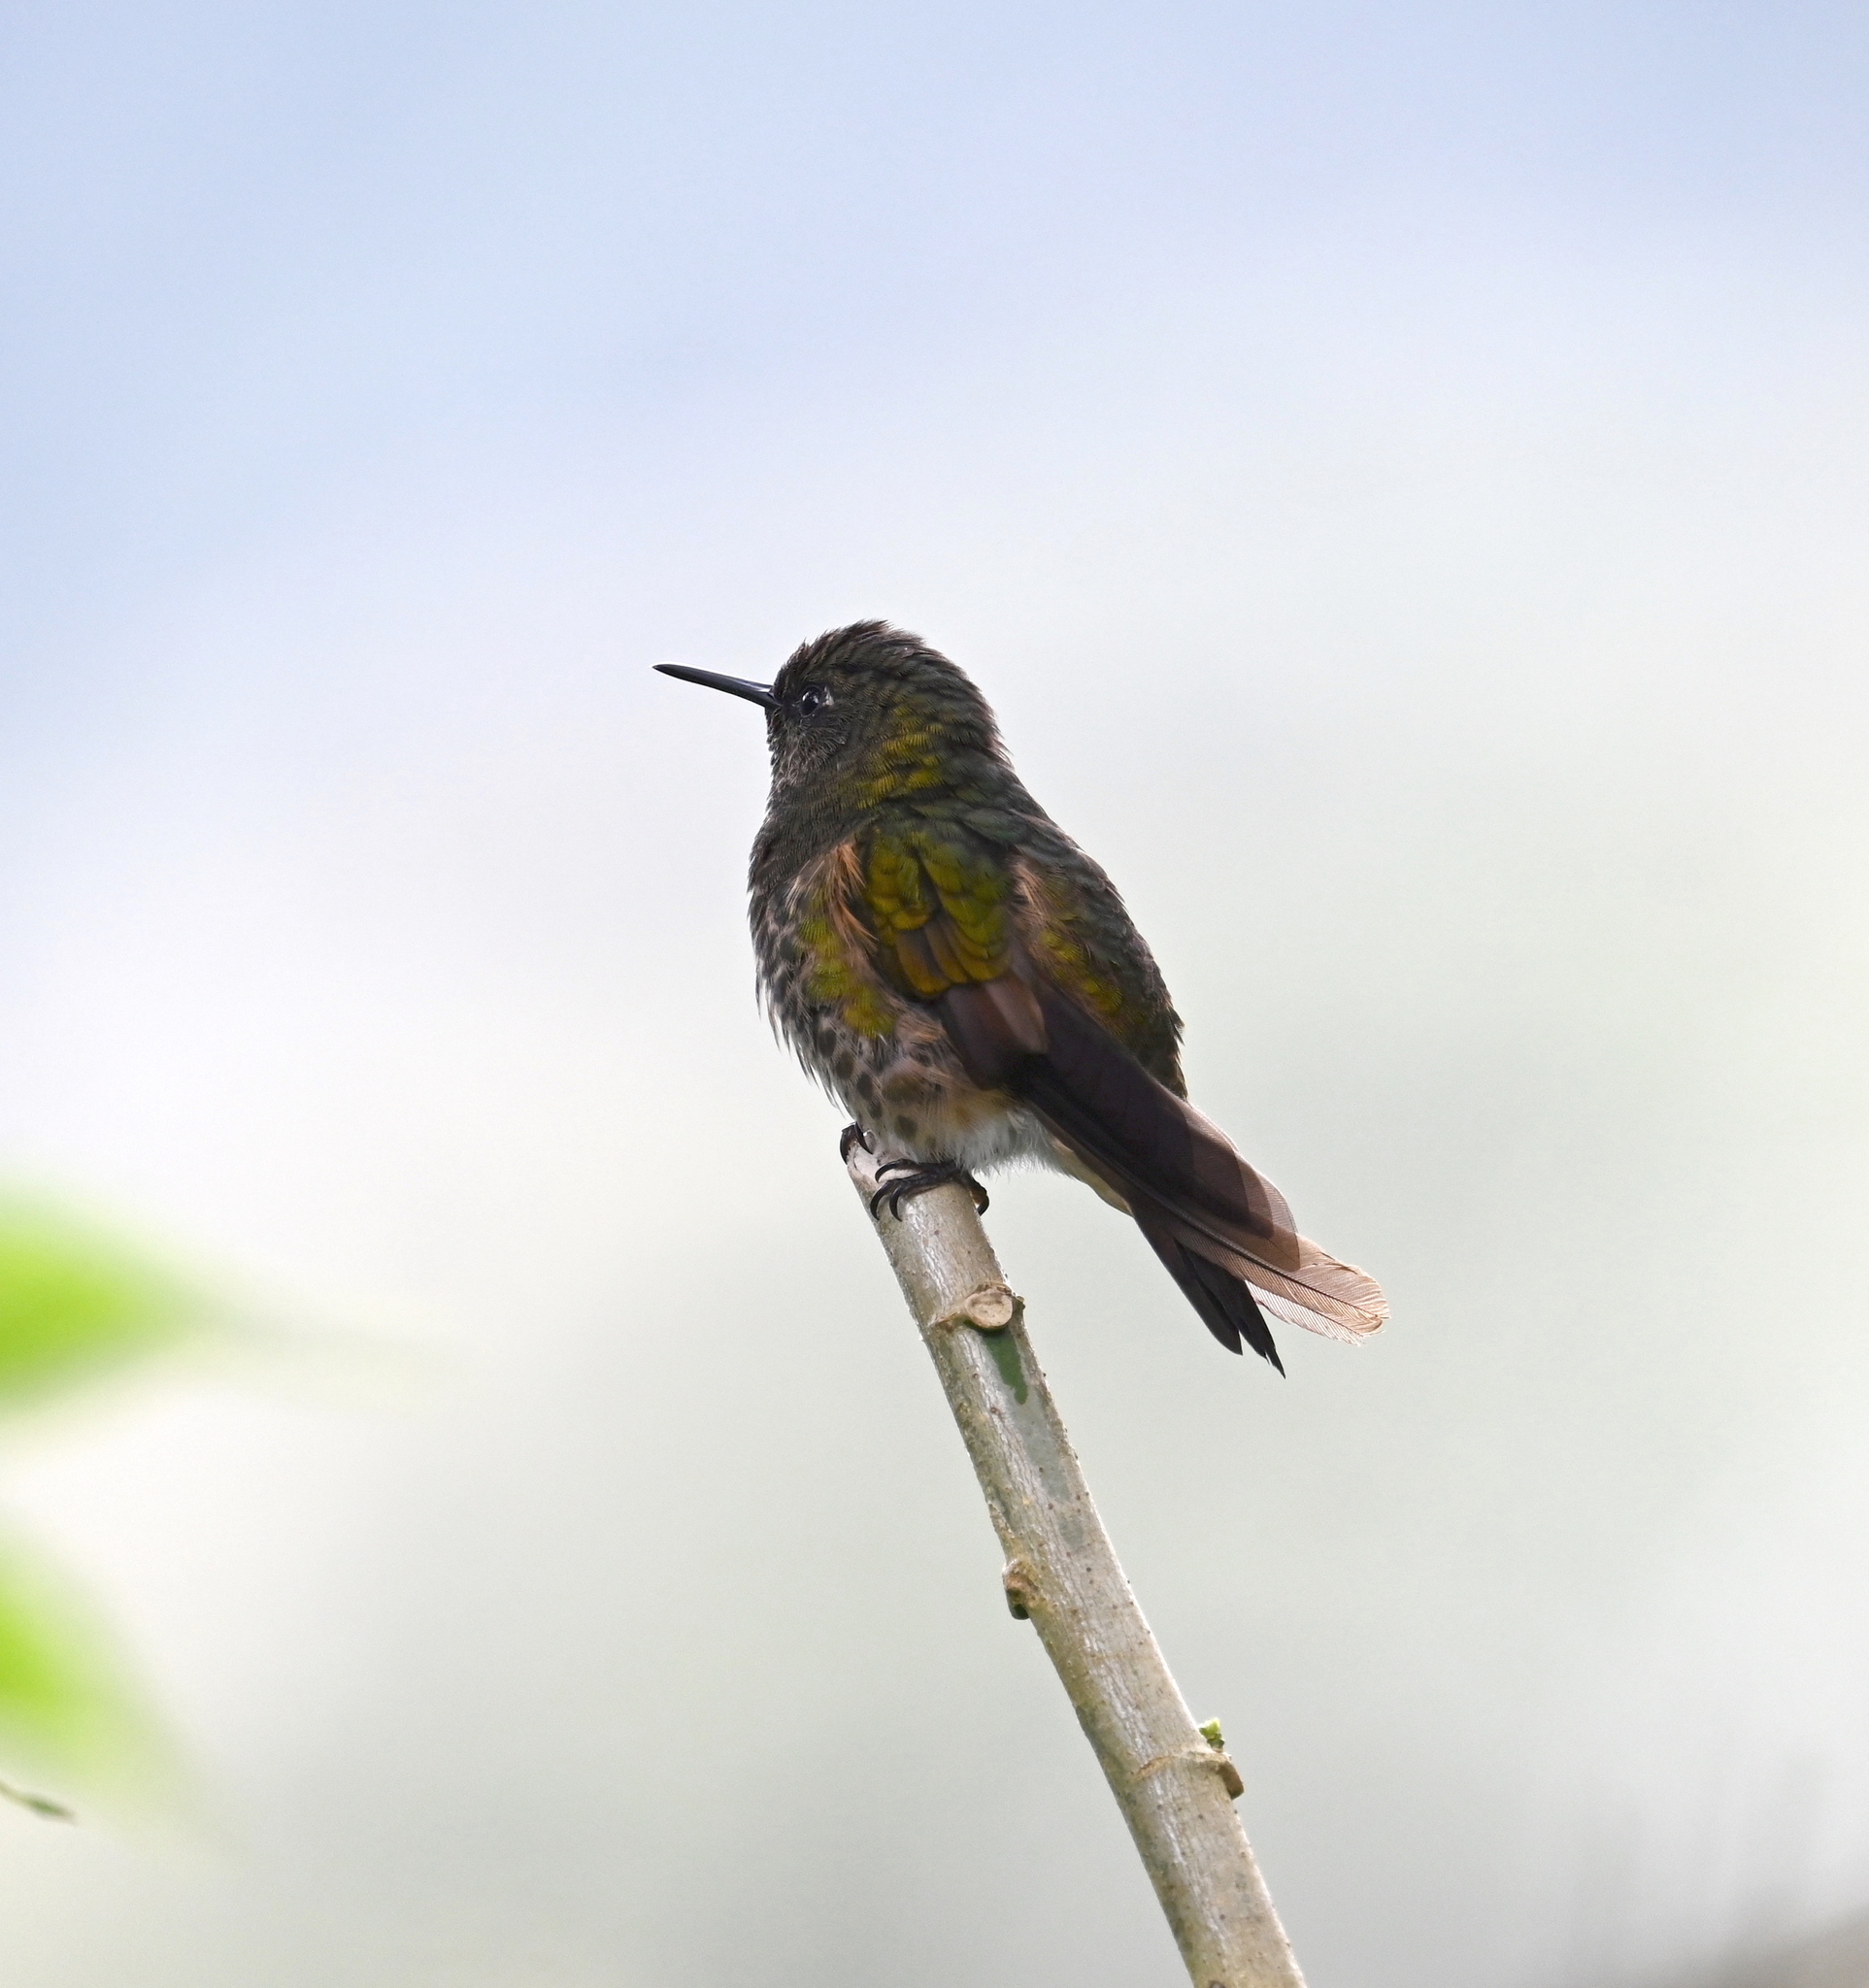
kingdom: Animalia
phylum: Chordata
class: Aves
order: Apodiformes
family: Trochilidae
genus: Boissonneaua
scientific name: Boissonneaua flavescens
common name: Buff-tailed coronet
